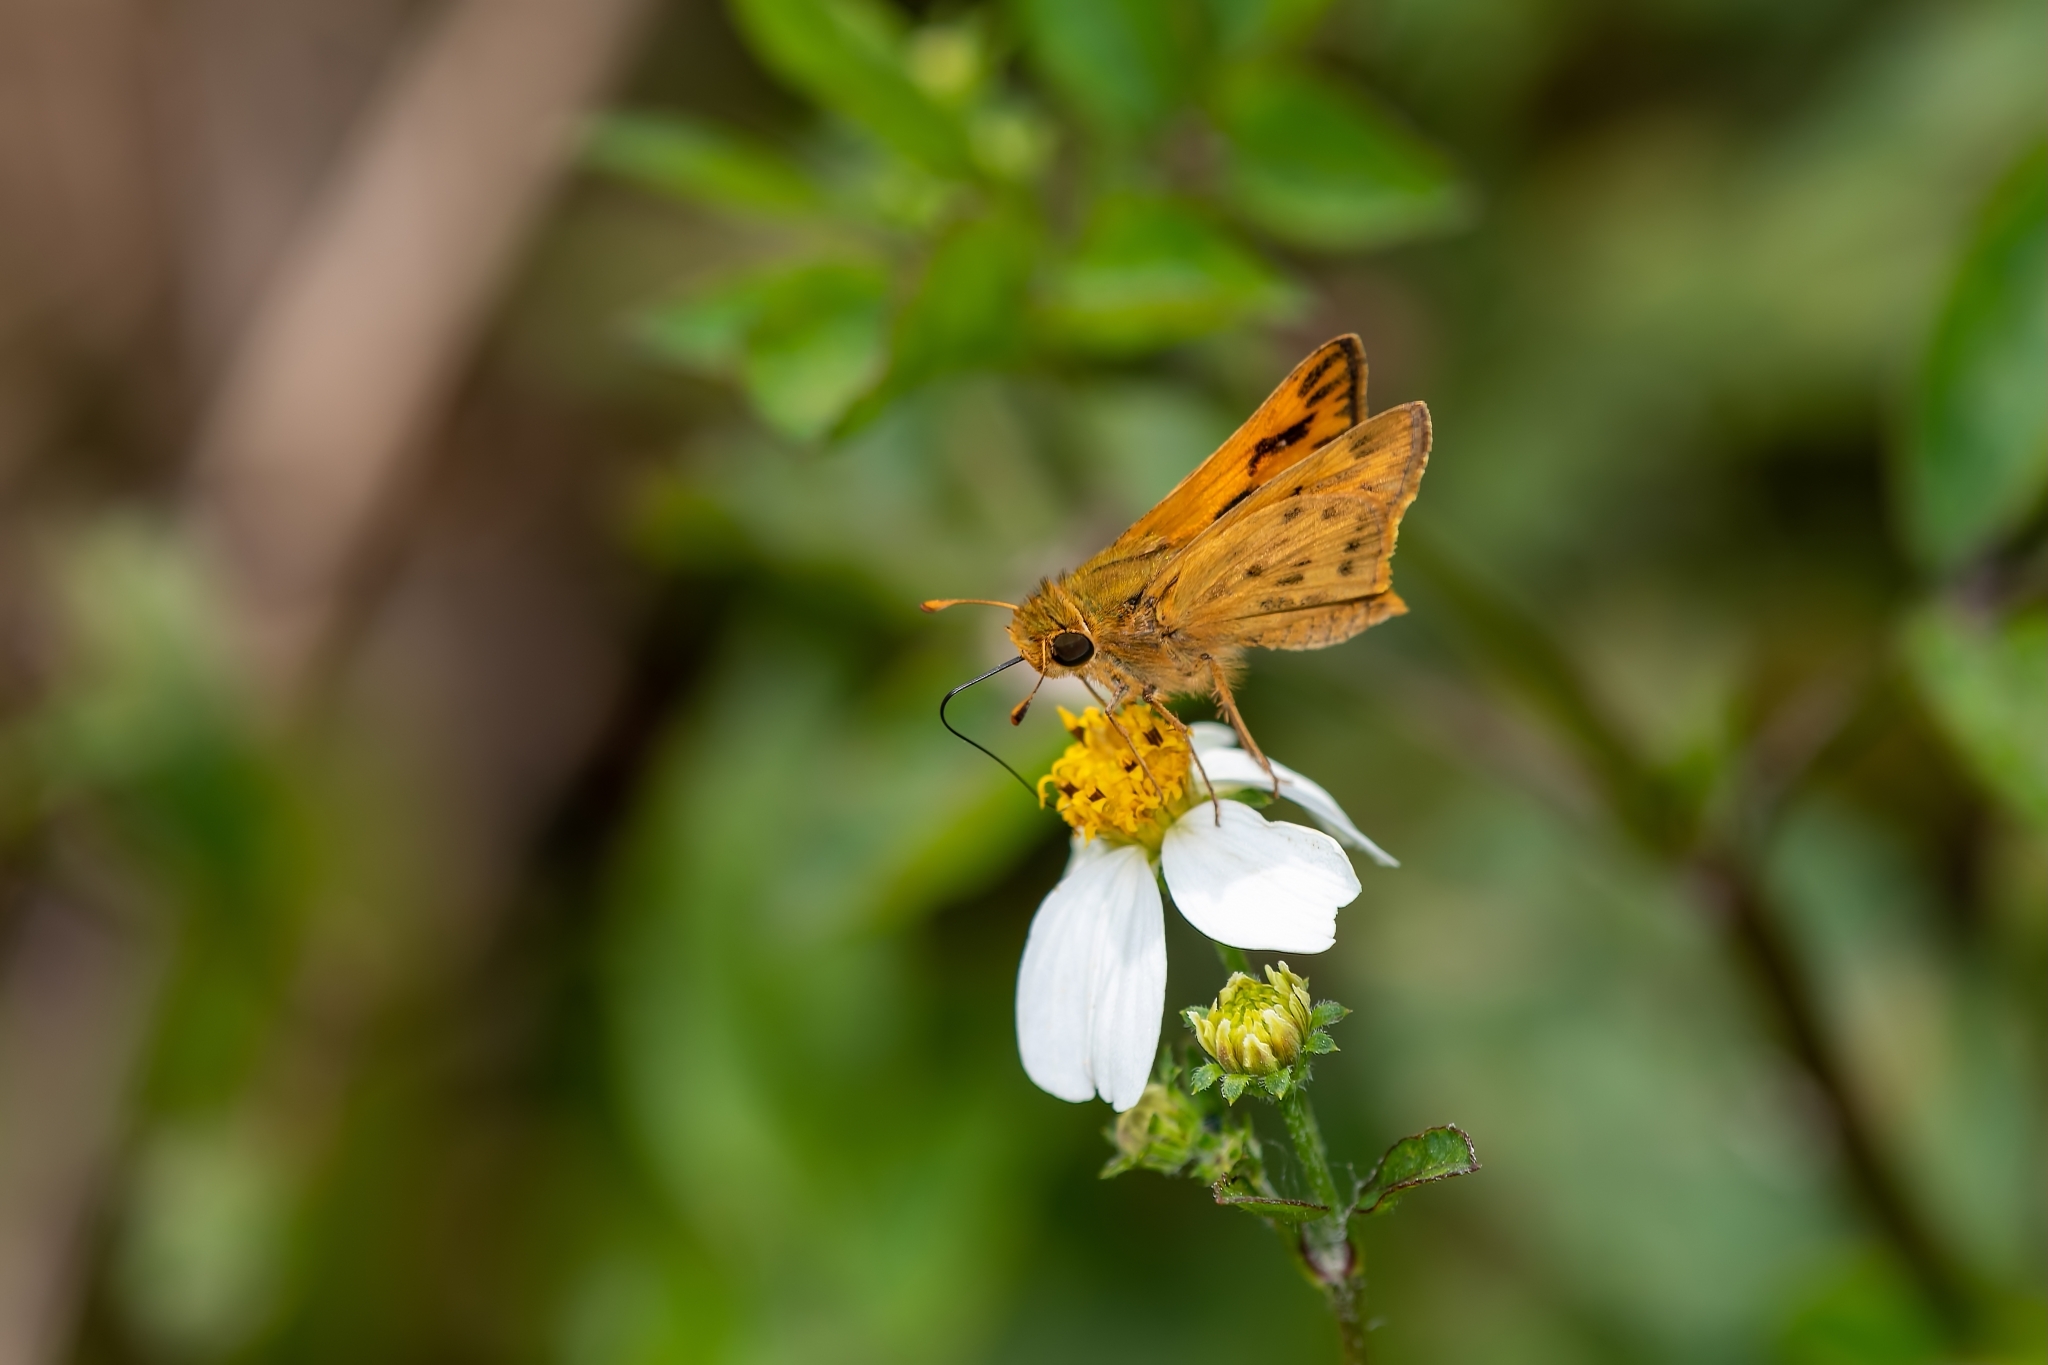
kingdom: Animalia
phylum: Arthropoda
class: Insecta
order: Lepidoptera
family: Hesperiidae
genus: Hylephila
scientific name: Hylephila phyleus
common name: Fiery skipper
